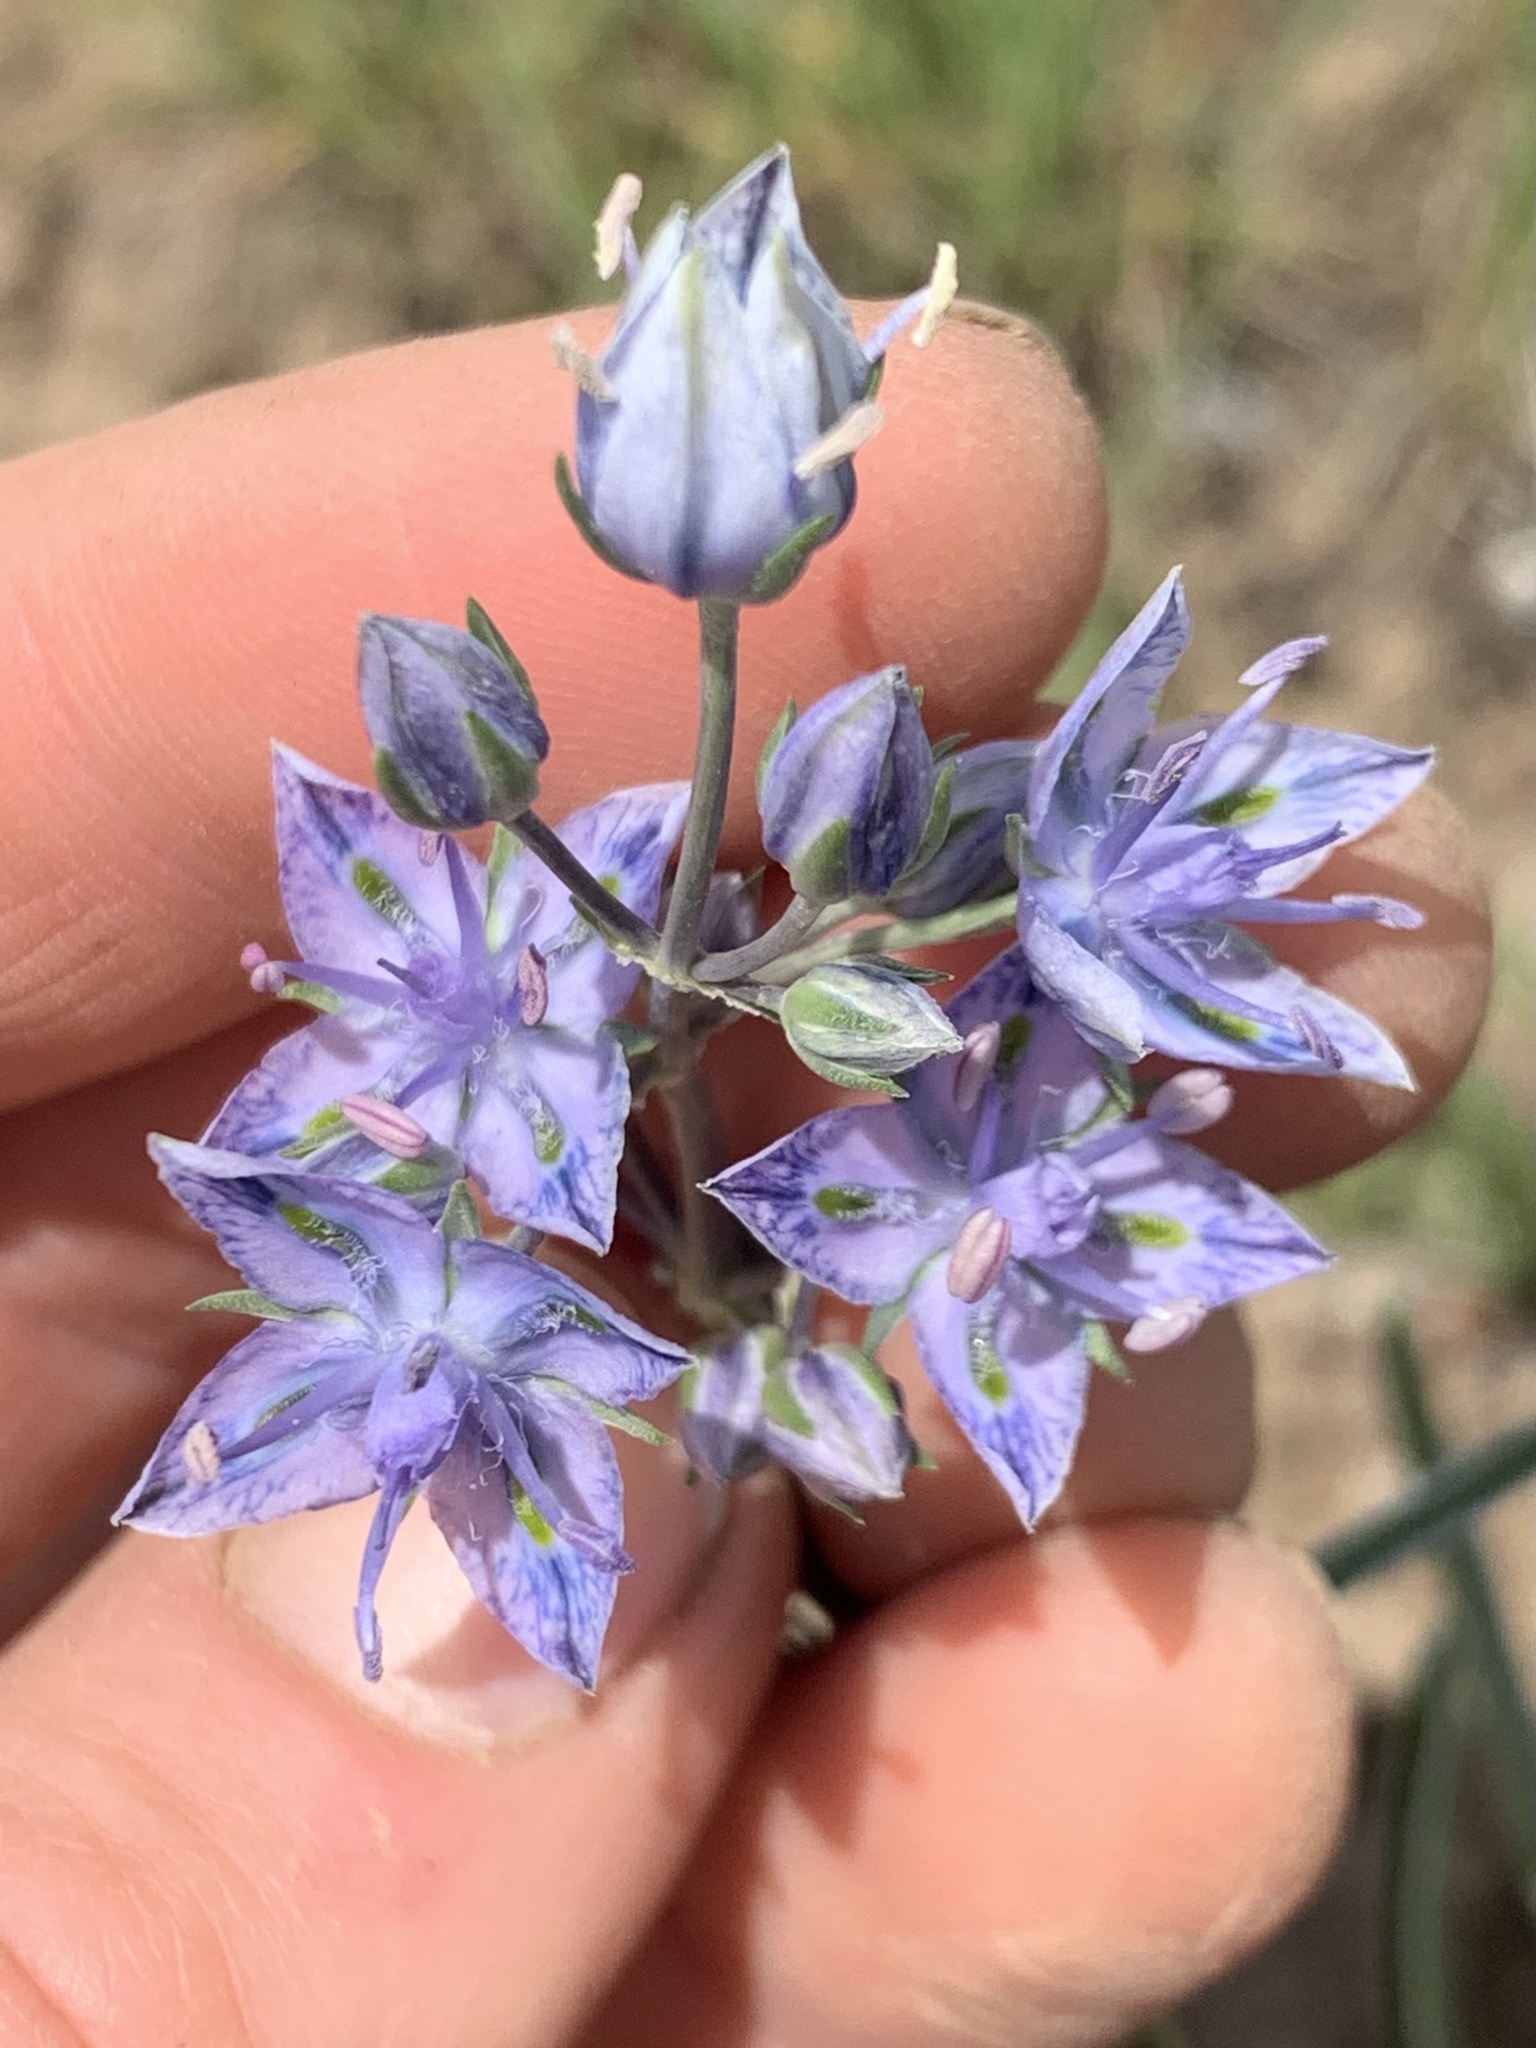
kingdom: Plantae
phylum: Tracheophyta
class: Magnoliopsida
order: Gentianales
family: Gentianaceae
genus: Frasera
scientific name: Frasera albicaulis
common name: Cusick's frasera
